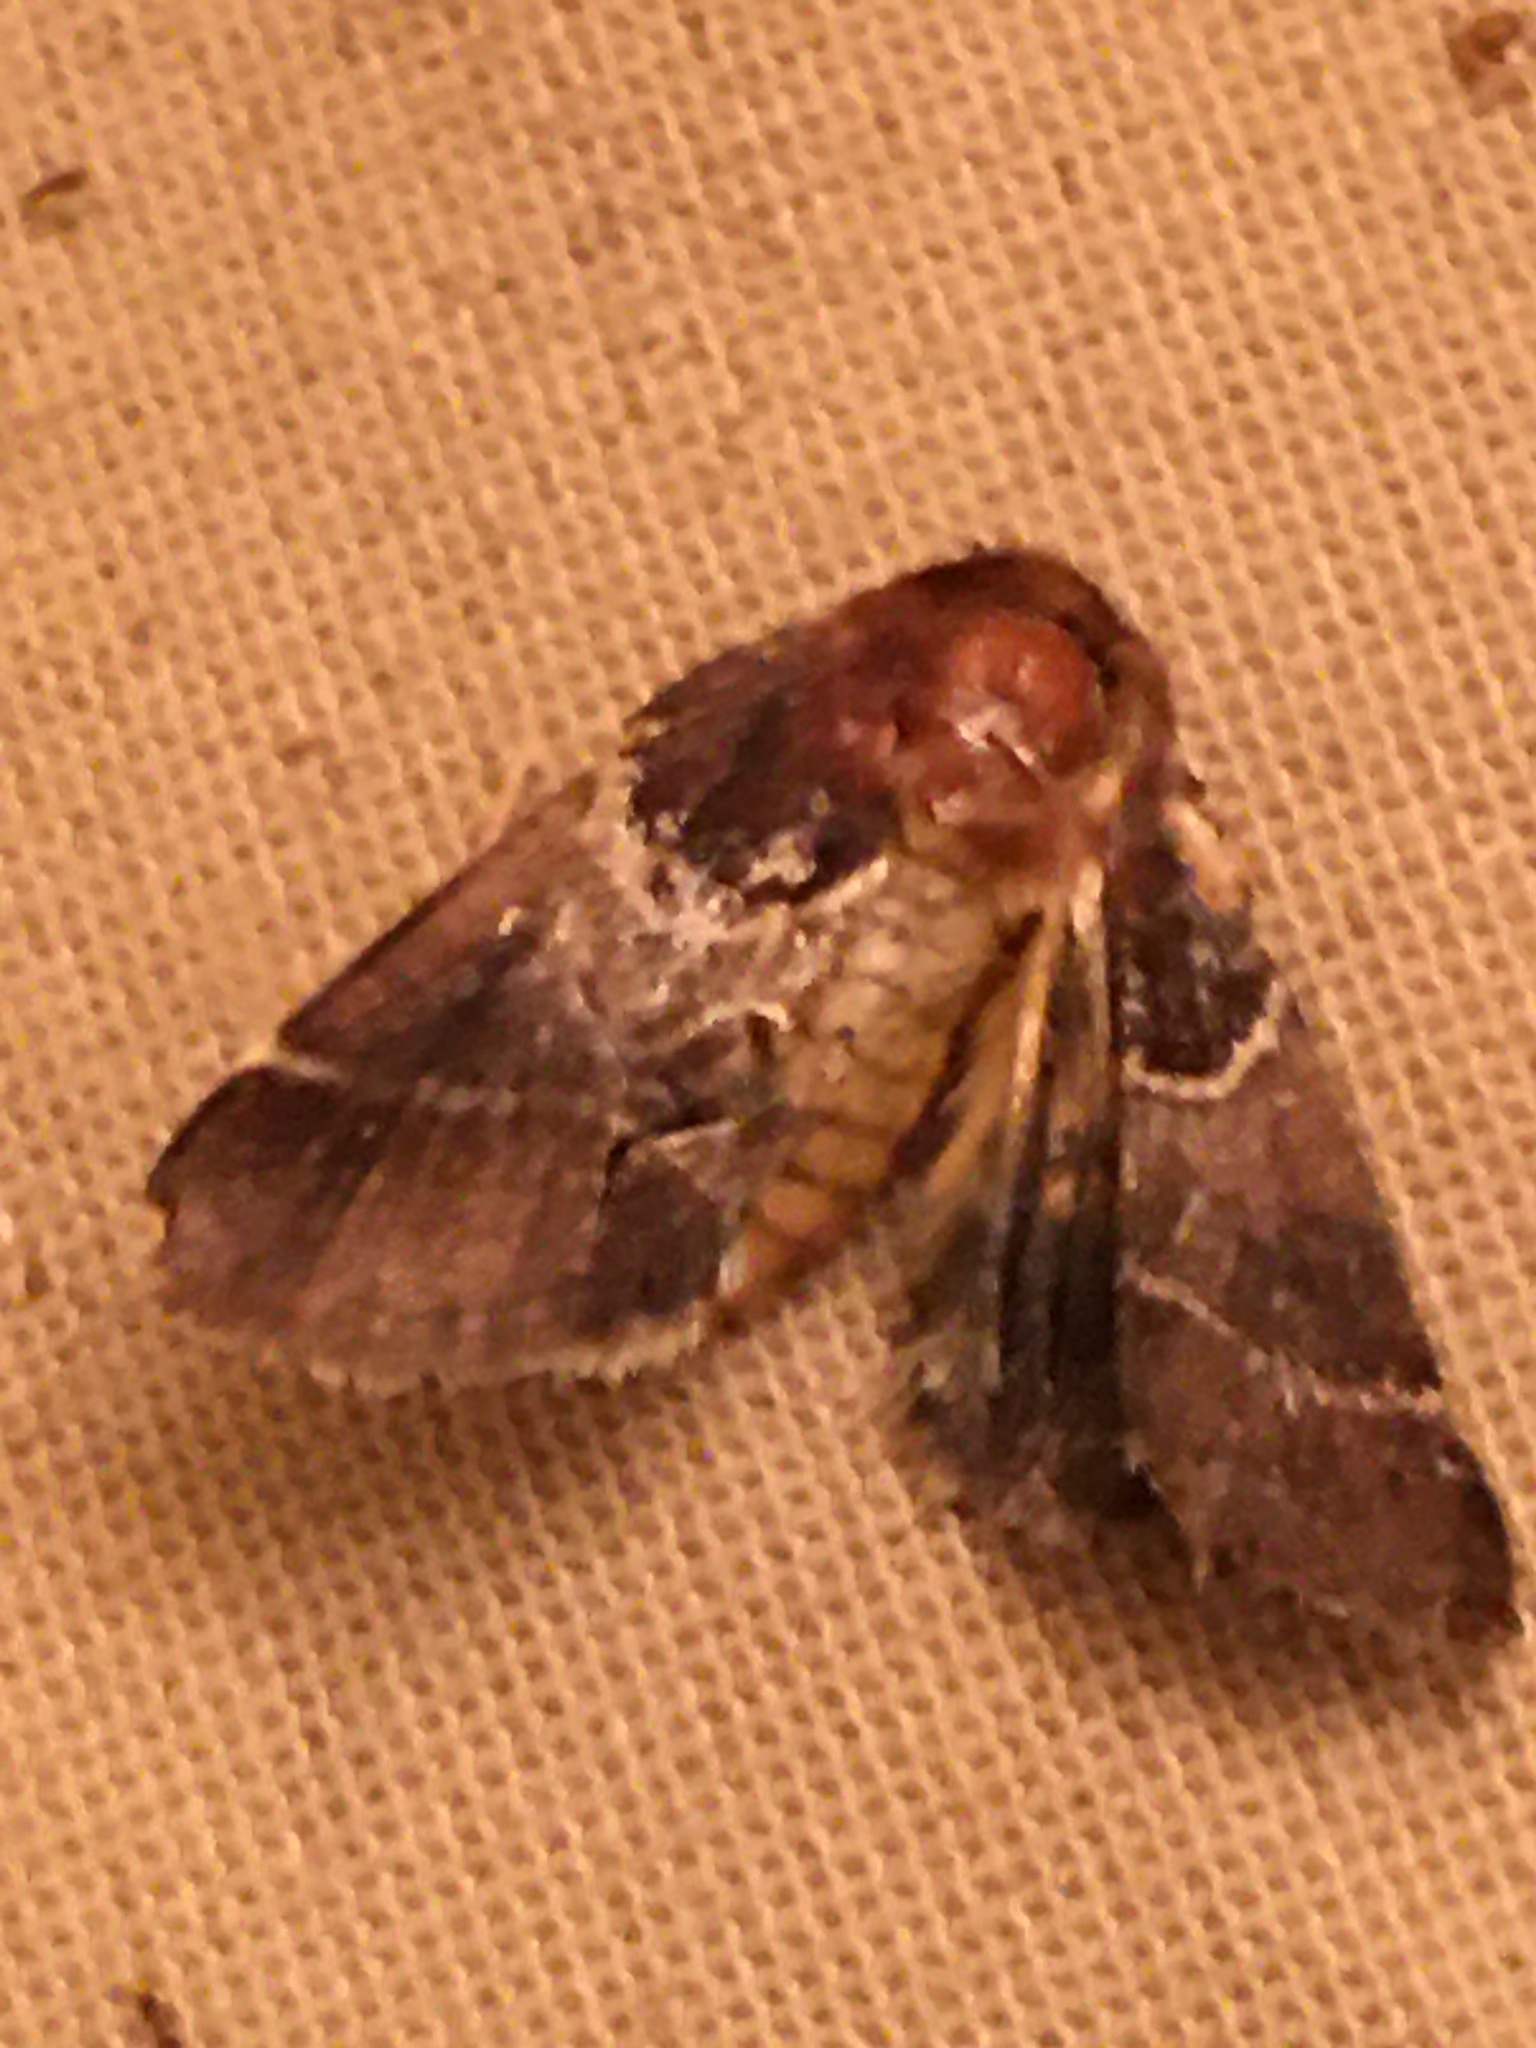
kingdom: Animalia
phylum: Arthropoda
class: Insecta
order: Lepidoptera
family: Noctuidae
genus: Schinia
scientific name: Schinia arcigera
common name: Arcigera flower moth
